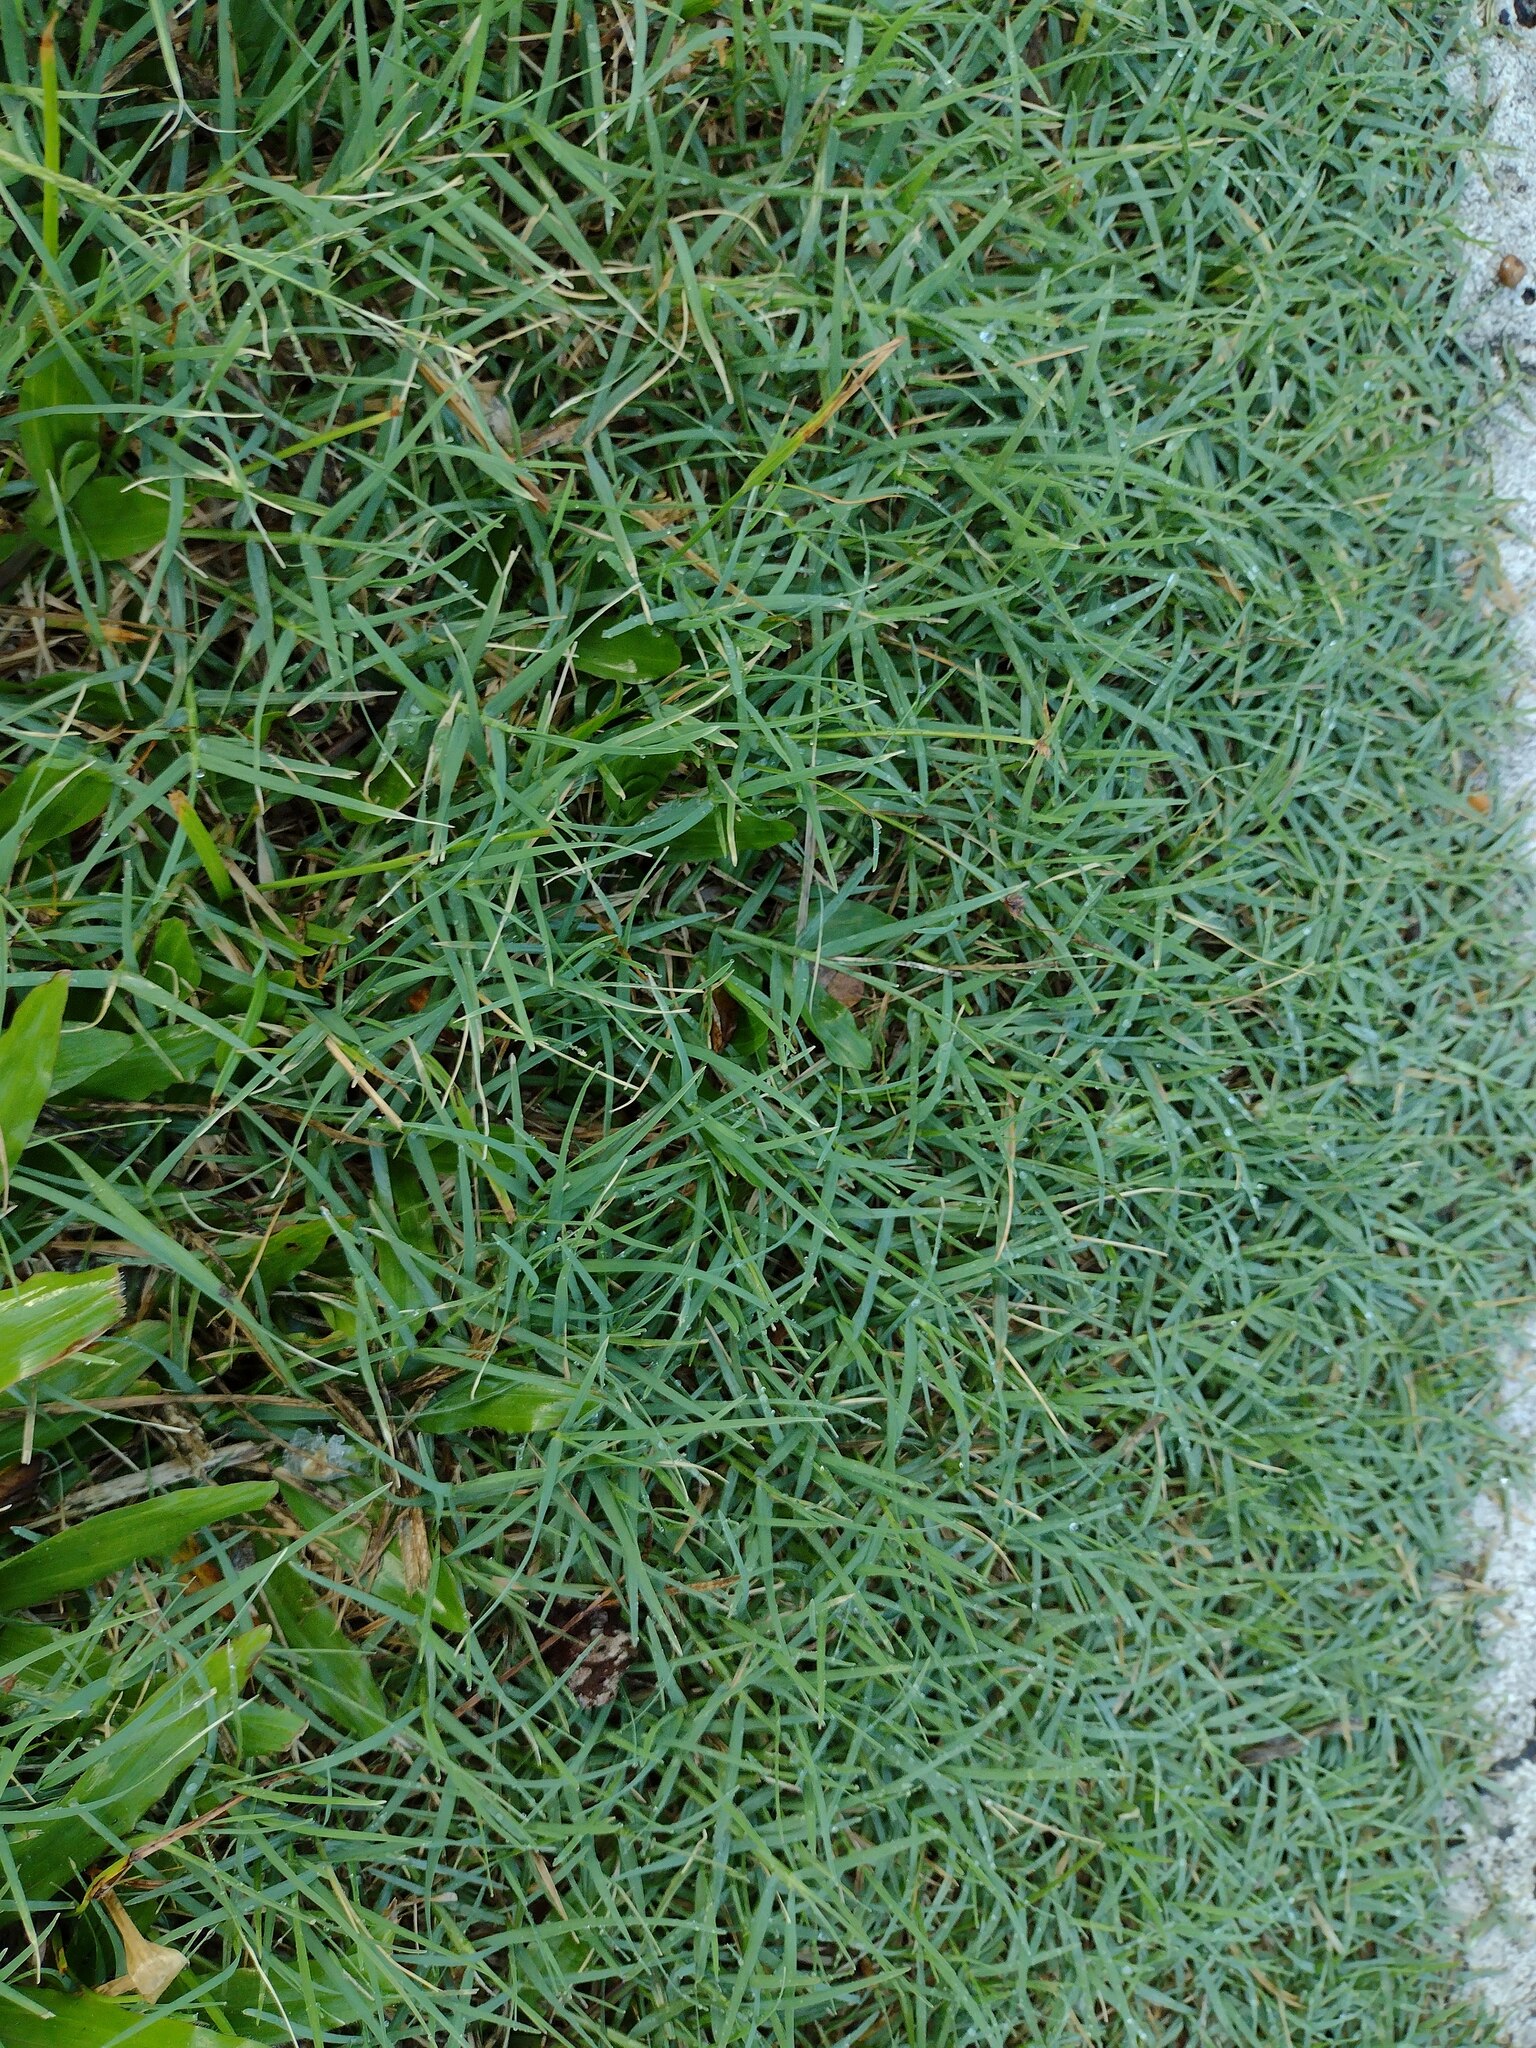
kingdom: Plantae
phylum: Tracheophyta
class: Liliopsida
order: Poales
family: Poaceae
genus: Cynodon
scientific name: Cynodon dactylon
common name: Bermuda grass
